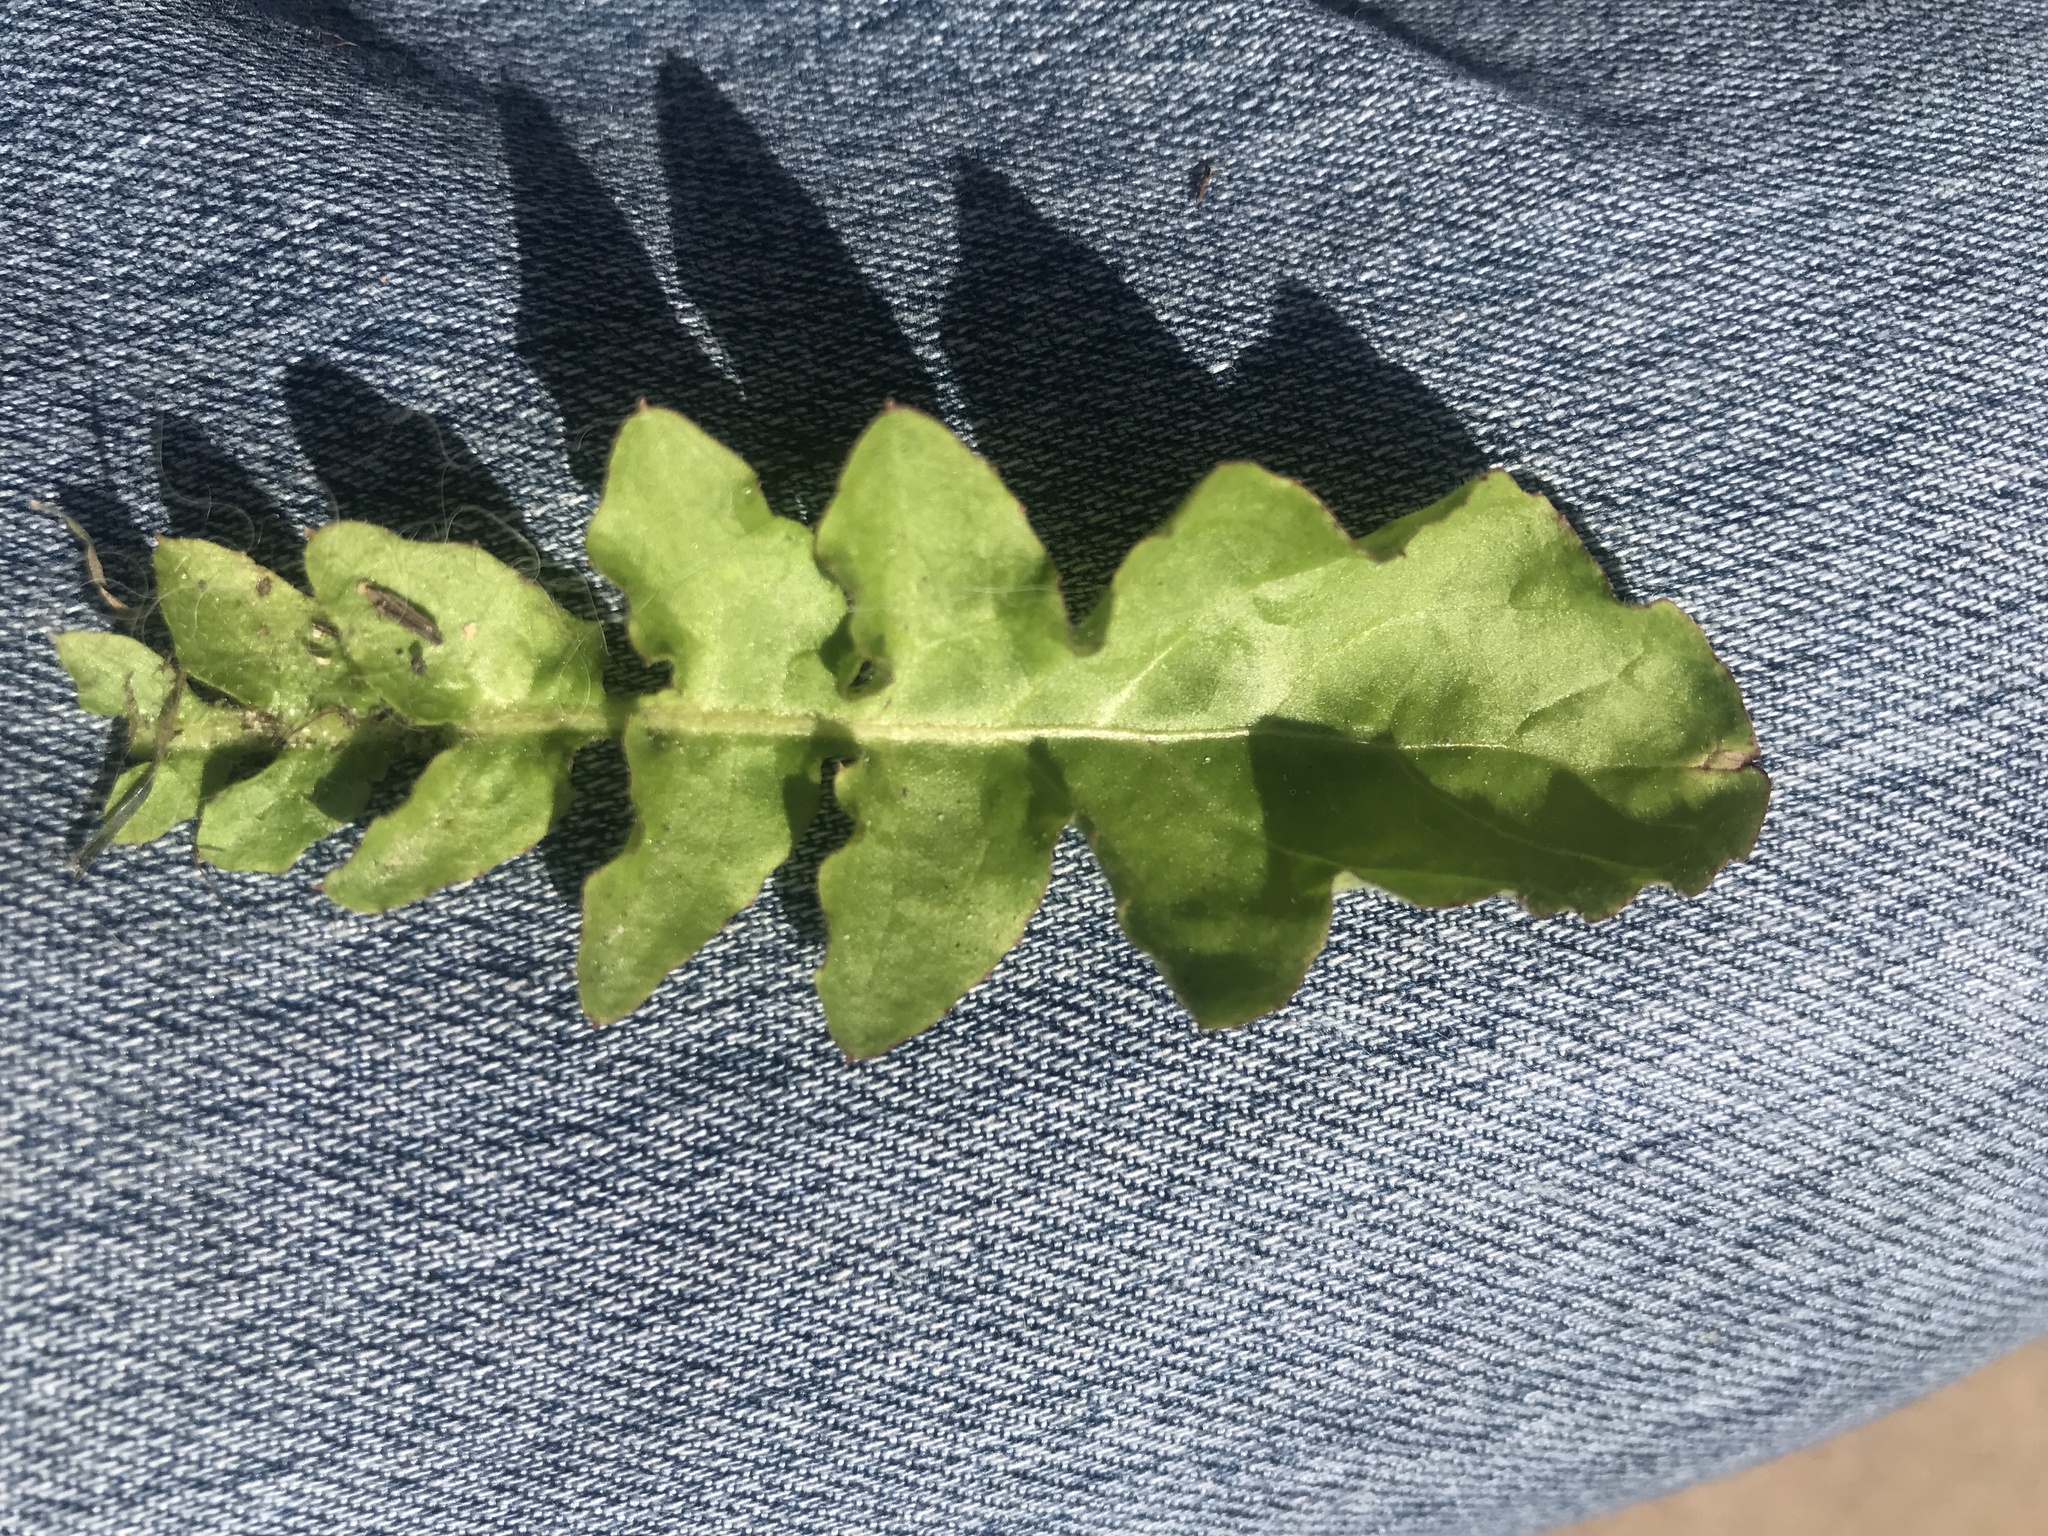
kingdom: Plantae
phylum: Tracheophyta
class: Magnoliopsida
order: Asterales
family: Asteraceae
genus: Youngia
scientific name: Youngia japonica
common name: Oriental false hawksbeard
